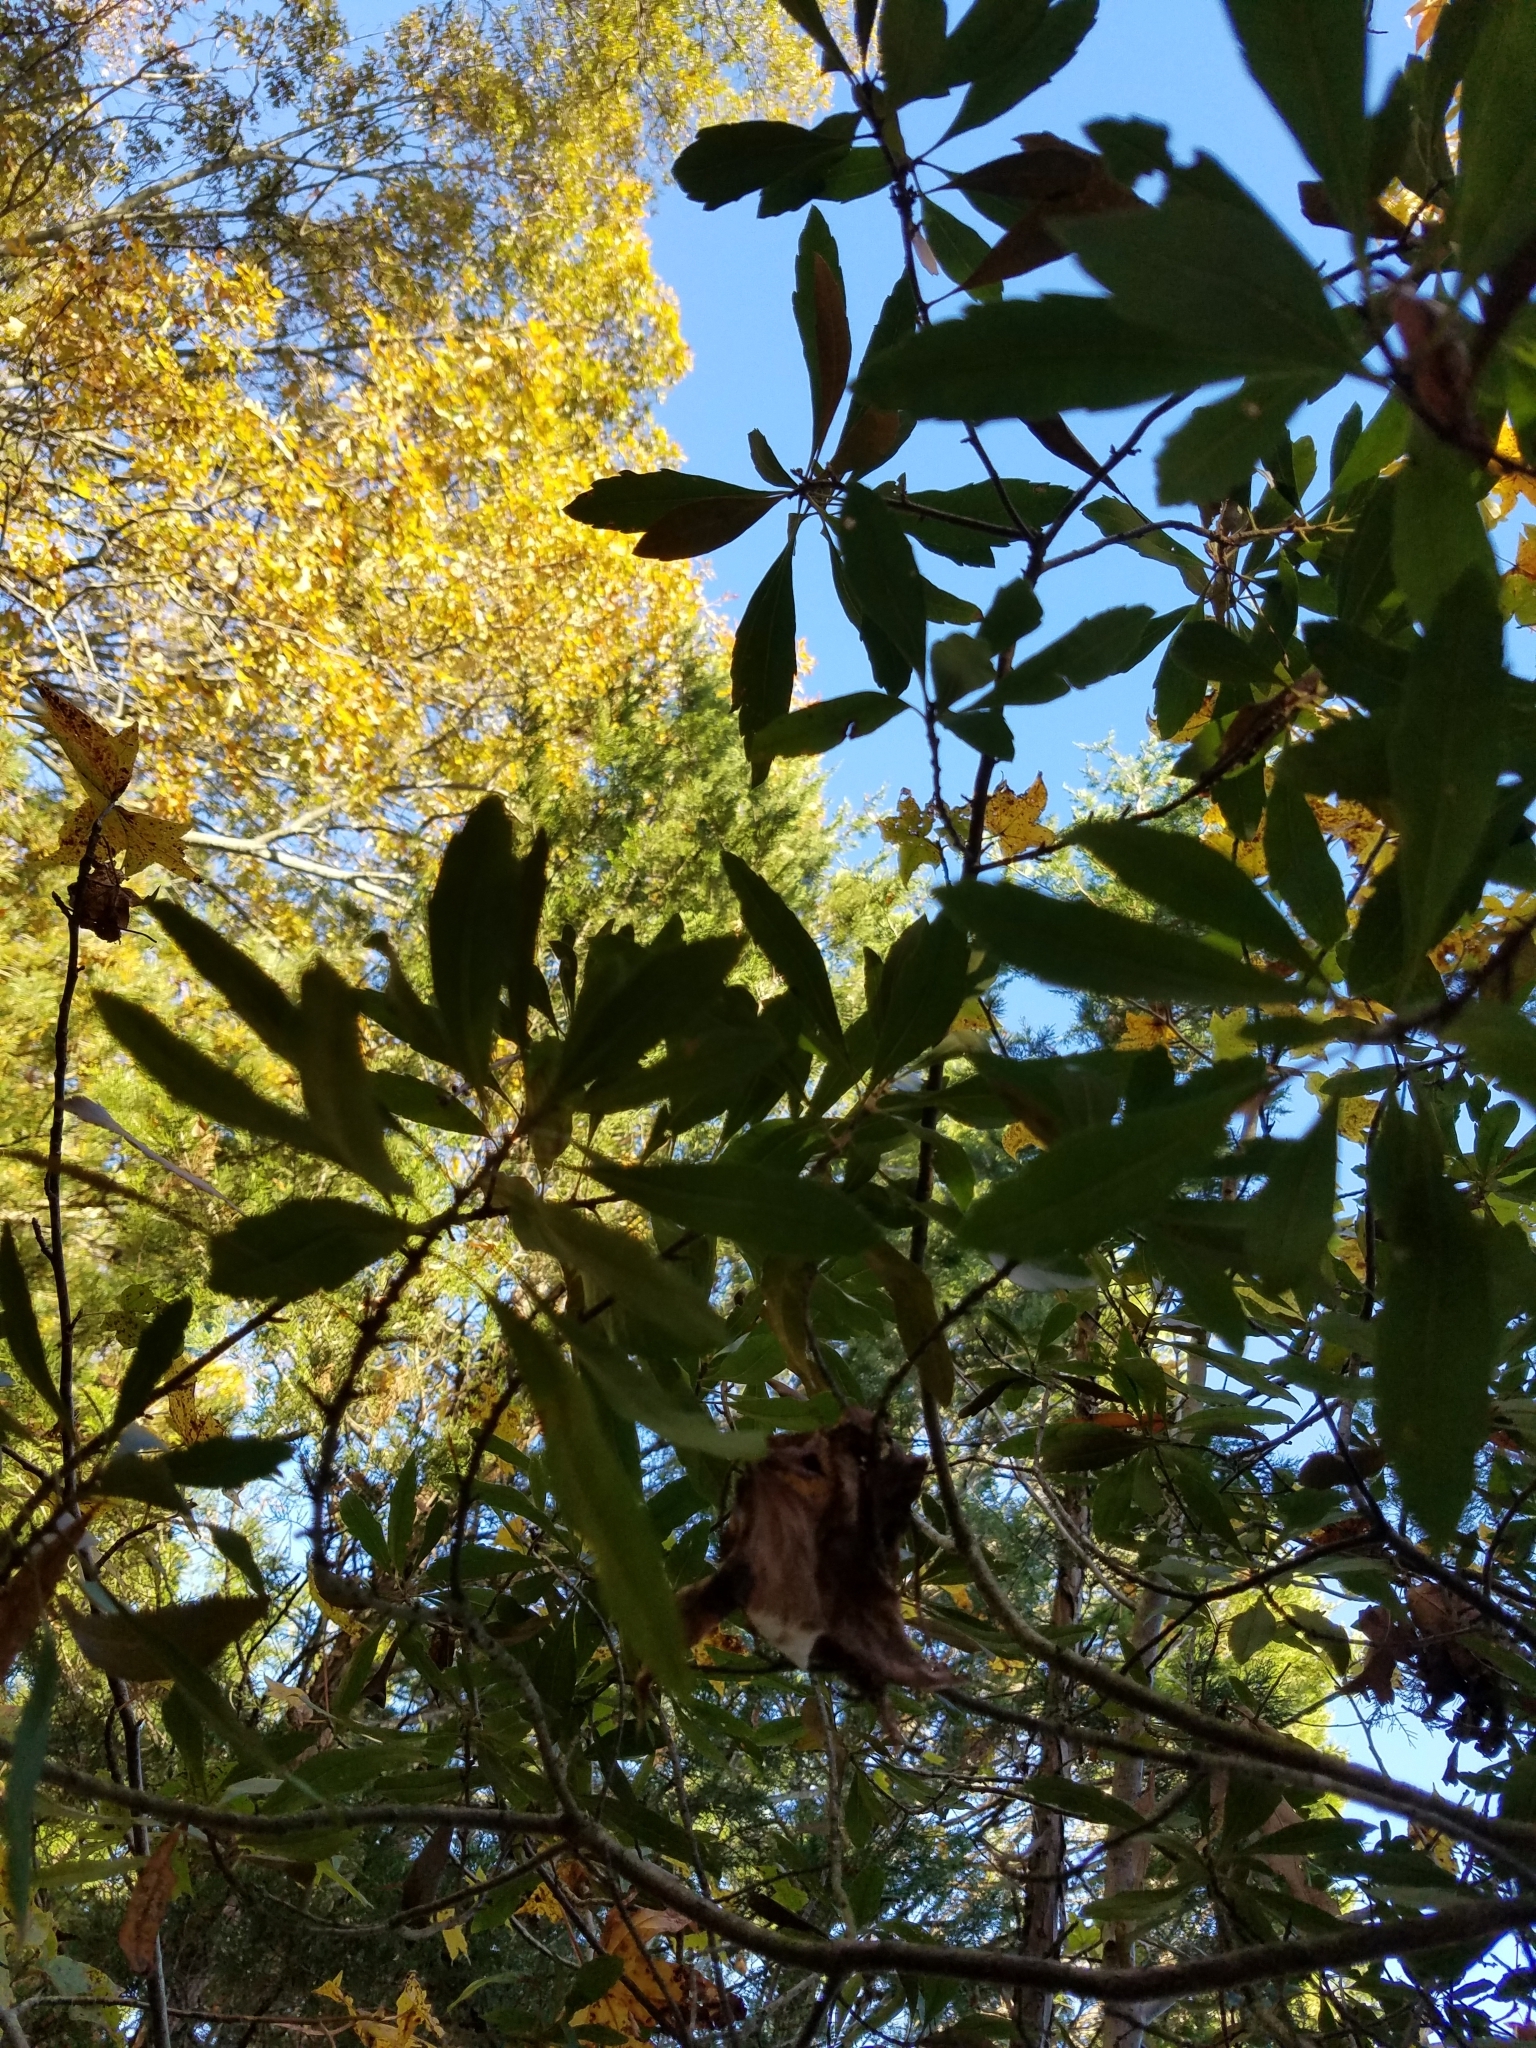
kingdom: Plantae
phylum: Tracheophyta
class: Magnoliopsida
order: Fagales
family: Myricaceae
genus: Morella
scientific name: Morella cerifera
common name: Wax myrtle
